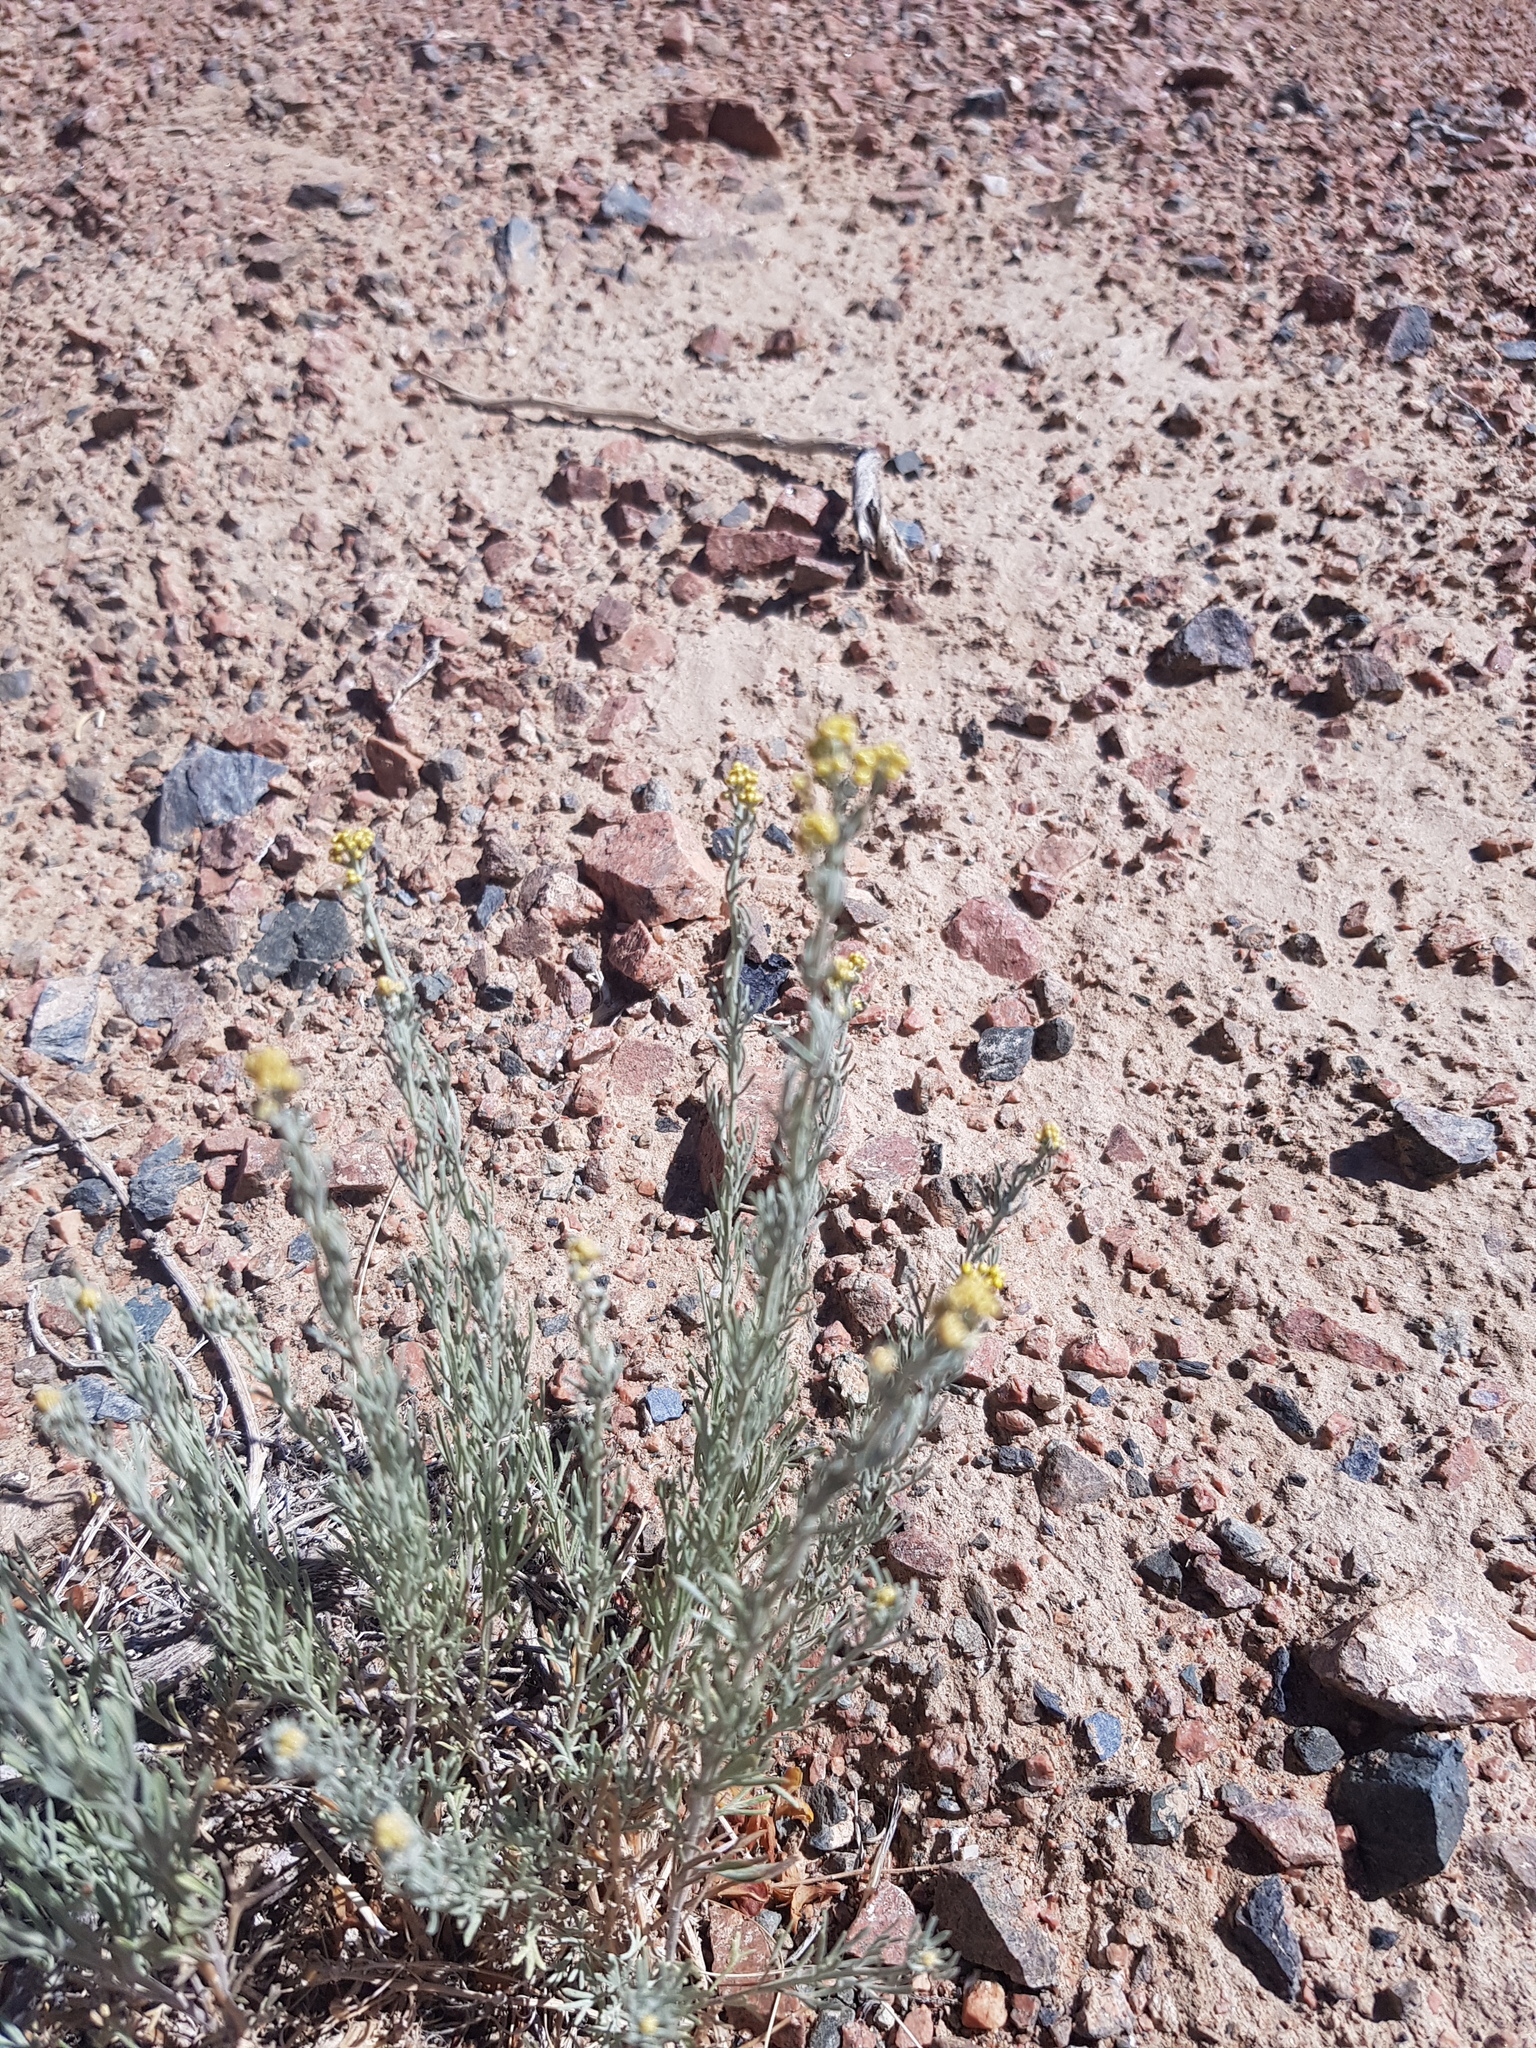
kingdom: Plantae
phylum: Tracheophyta
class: Magnoliopsida
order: Asterales
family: Asteraceae
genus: Ajania
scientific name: Ajania achilleoides
